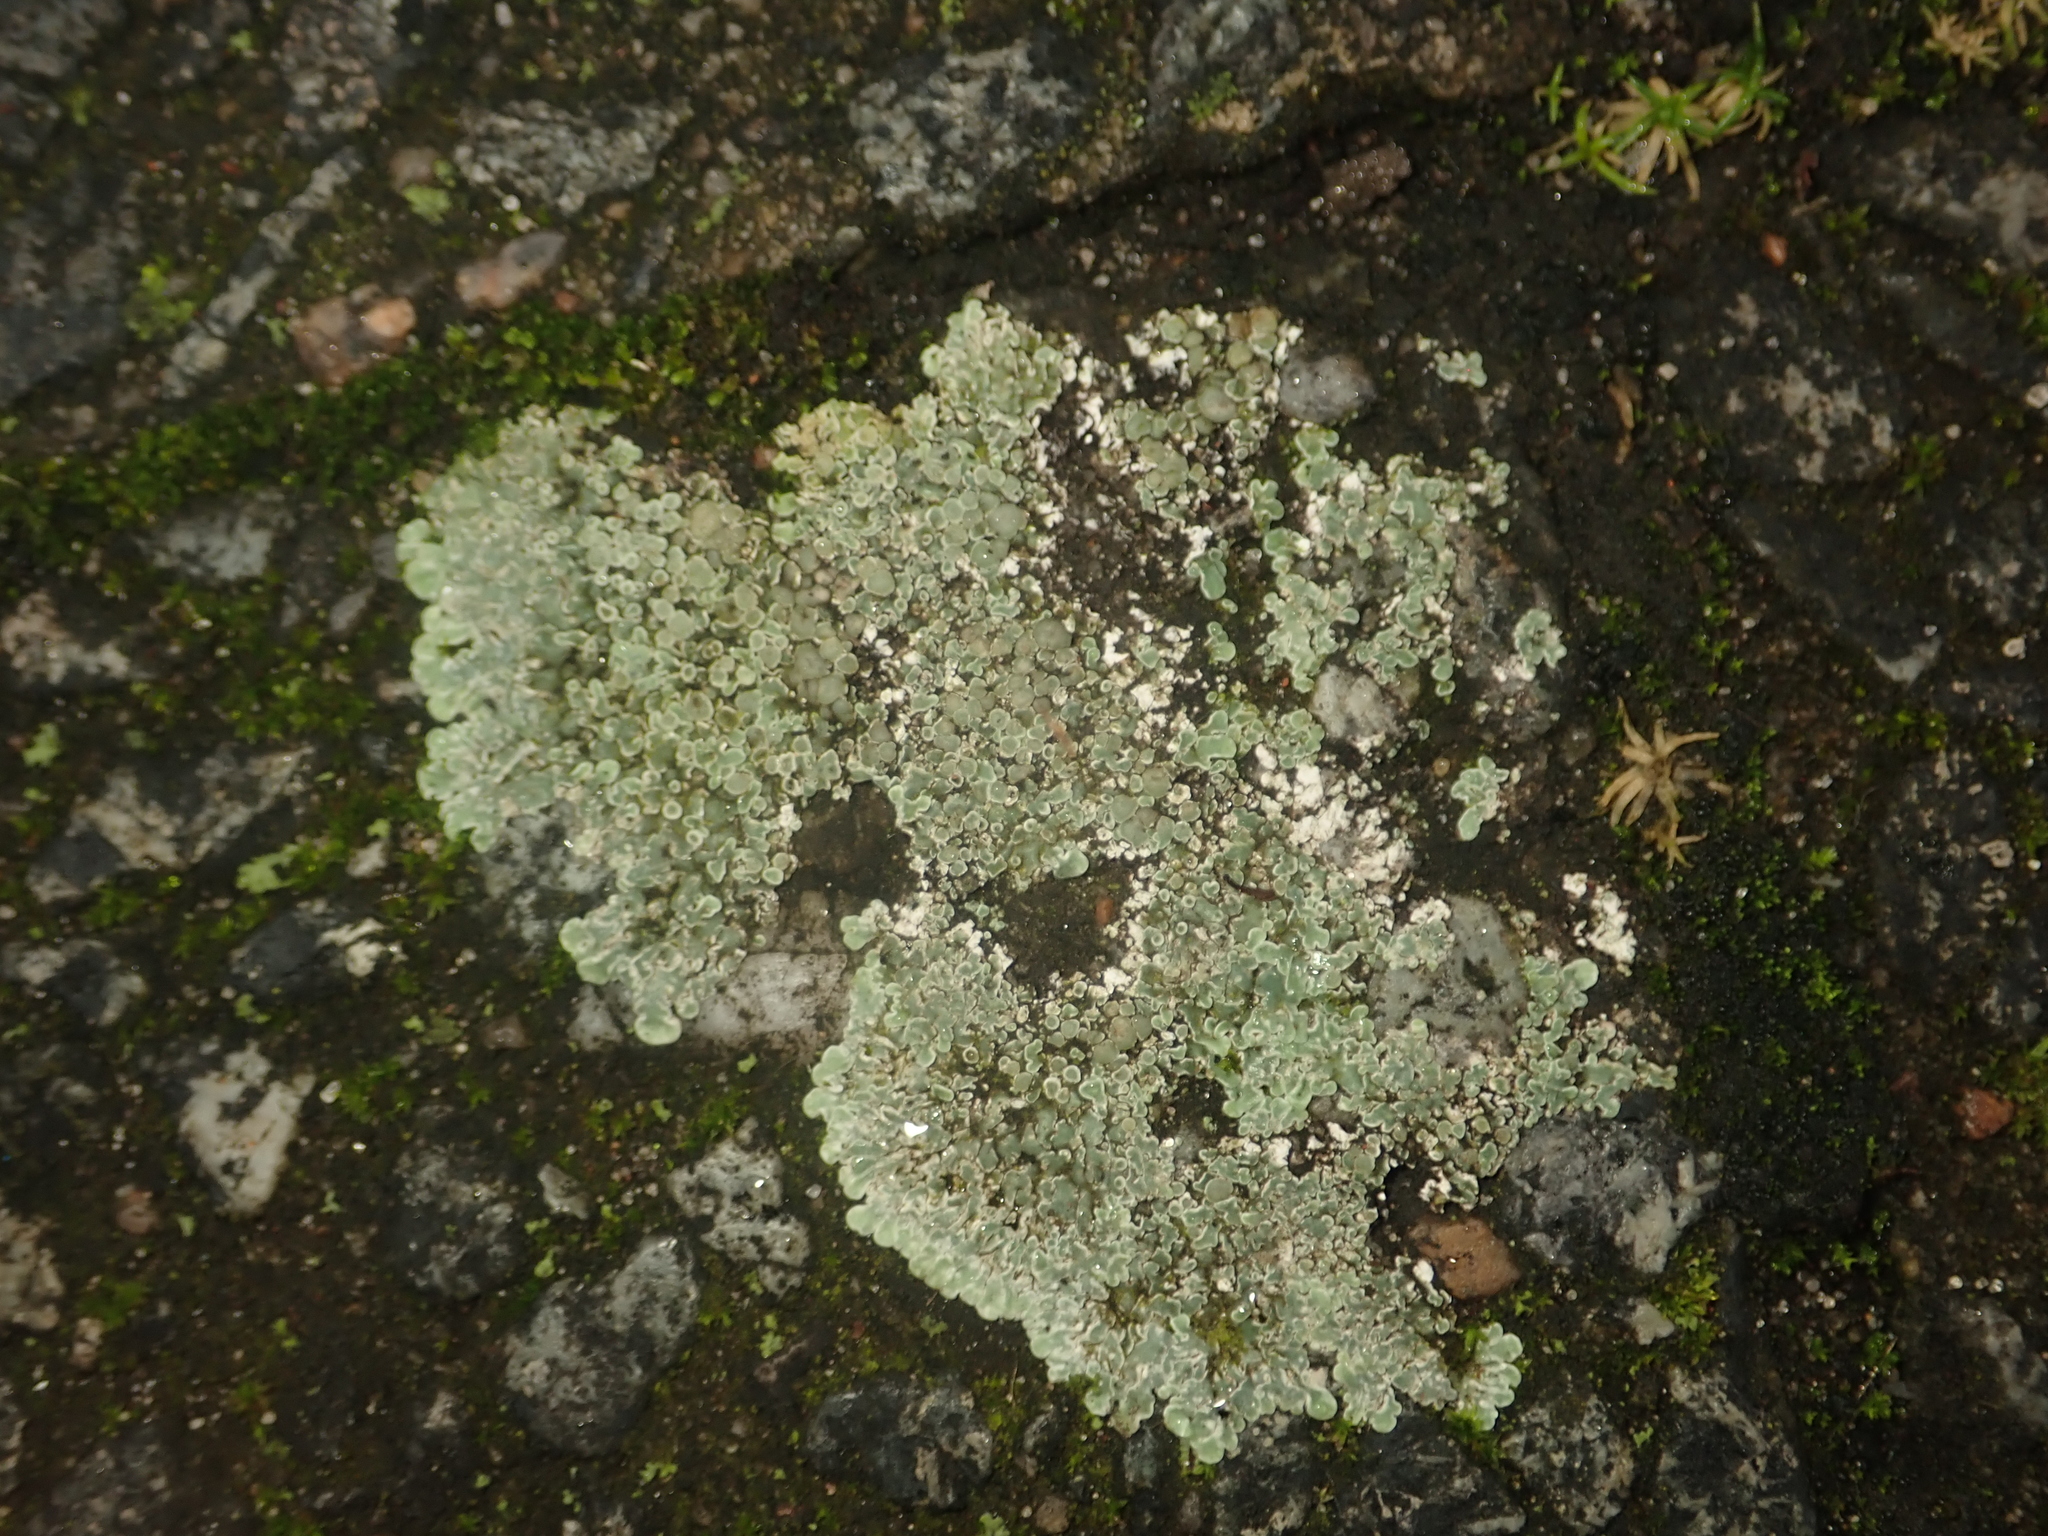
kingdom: Fungi
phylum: Ascomycota
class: Lecanoromycetes
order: Lecanorales
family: Lecanoraceae
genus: Protoparmeliopsis
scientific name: Protoparmeliopsis muralis
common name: Stonewall rim lichen
